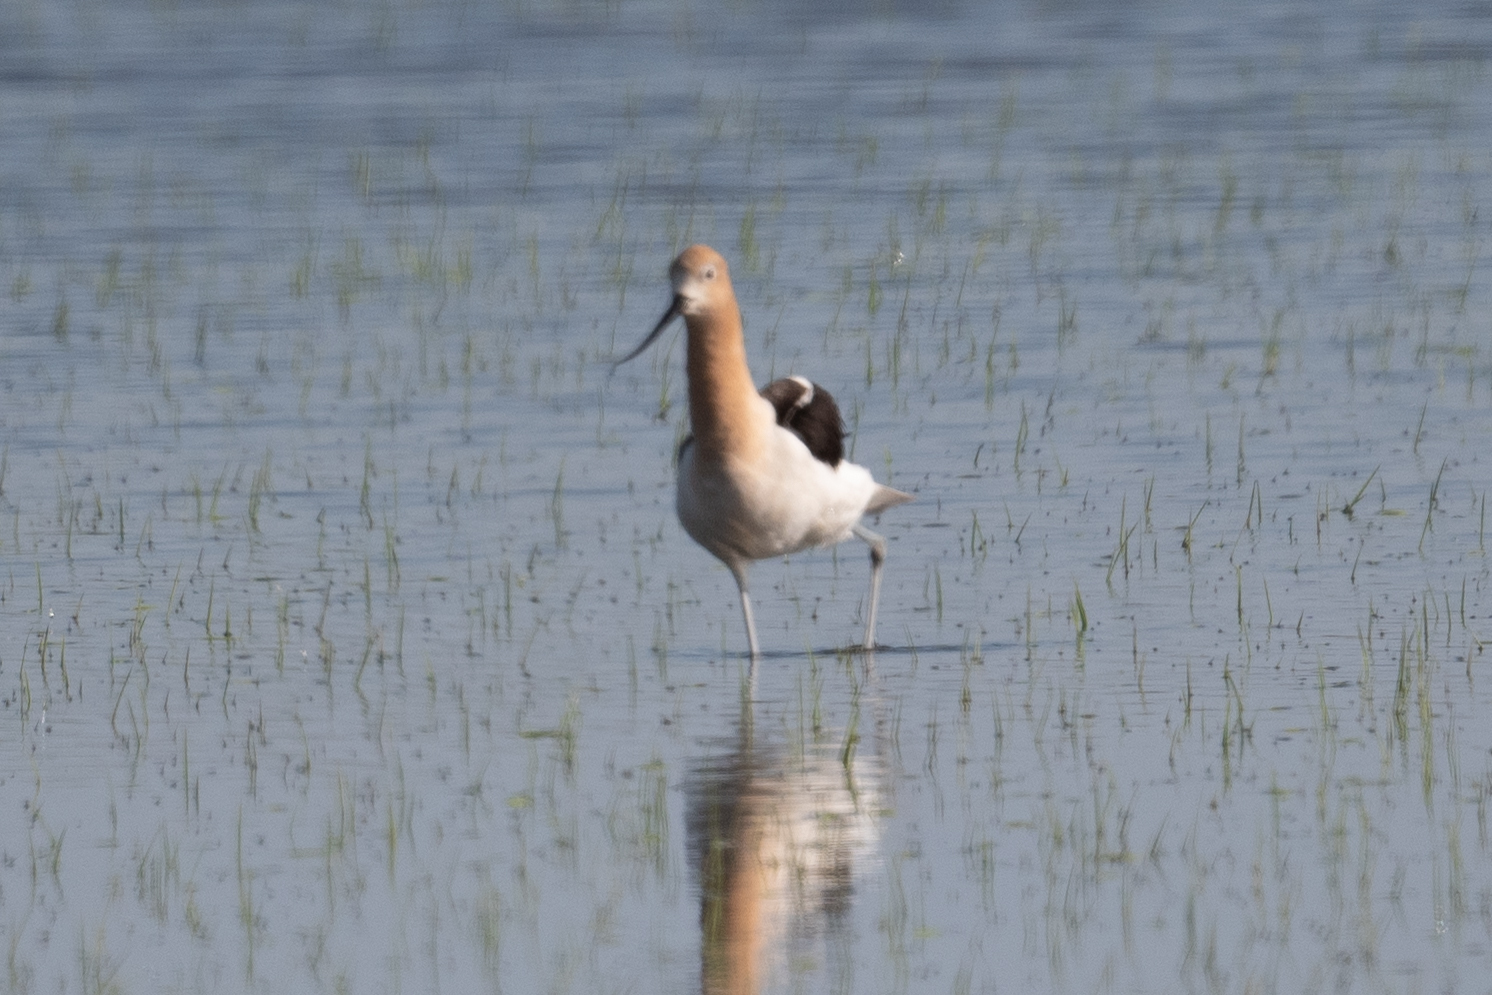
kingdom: Animalia
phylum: Chordata
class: Aves
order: Charadriiformes
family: Recurvirostridae
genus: Recurvirostra
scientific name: Recurvirostra americana
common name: American avocet
